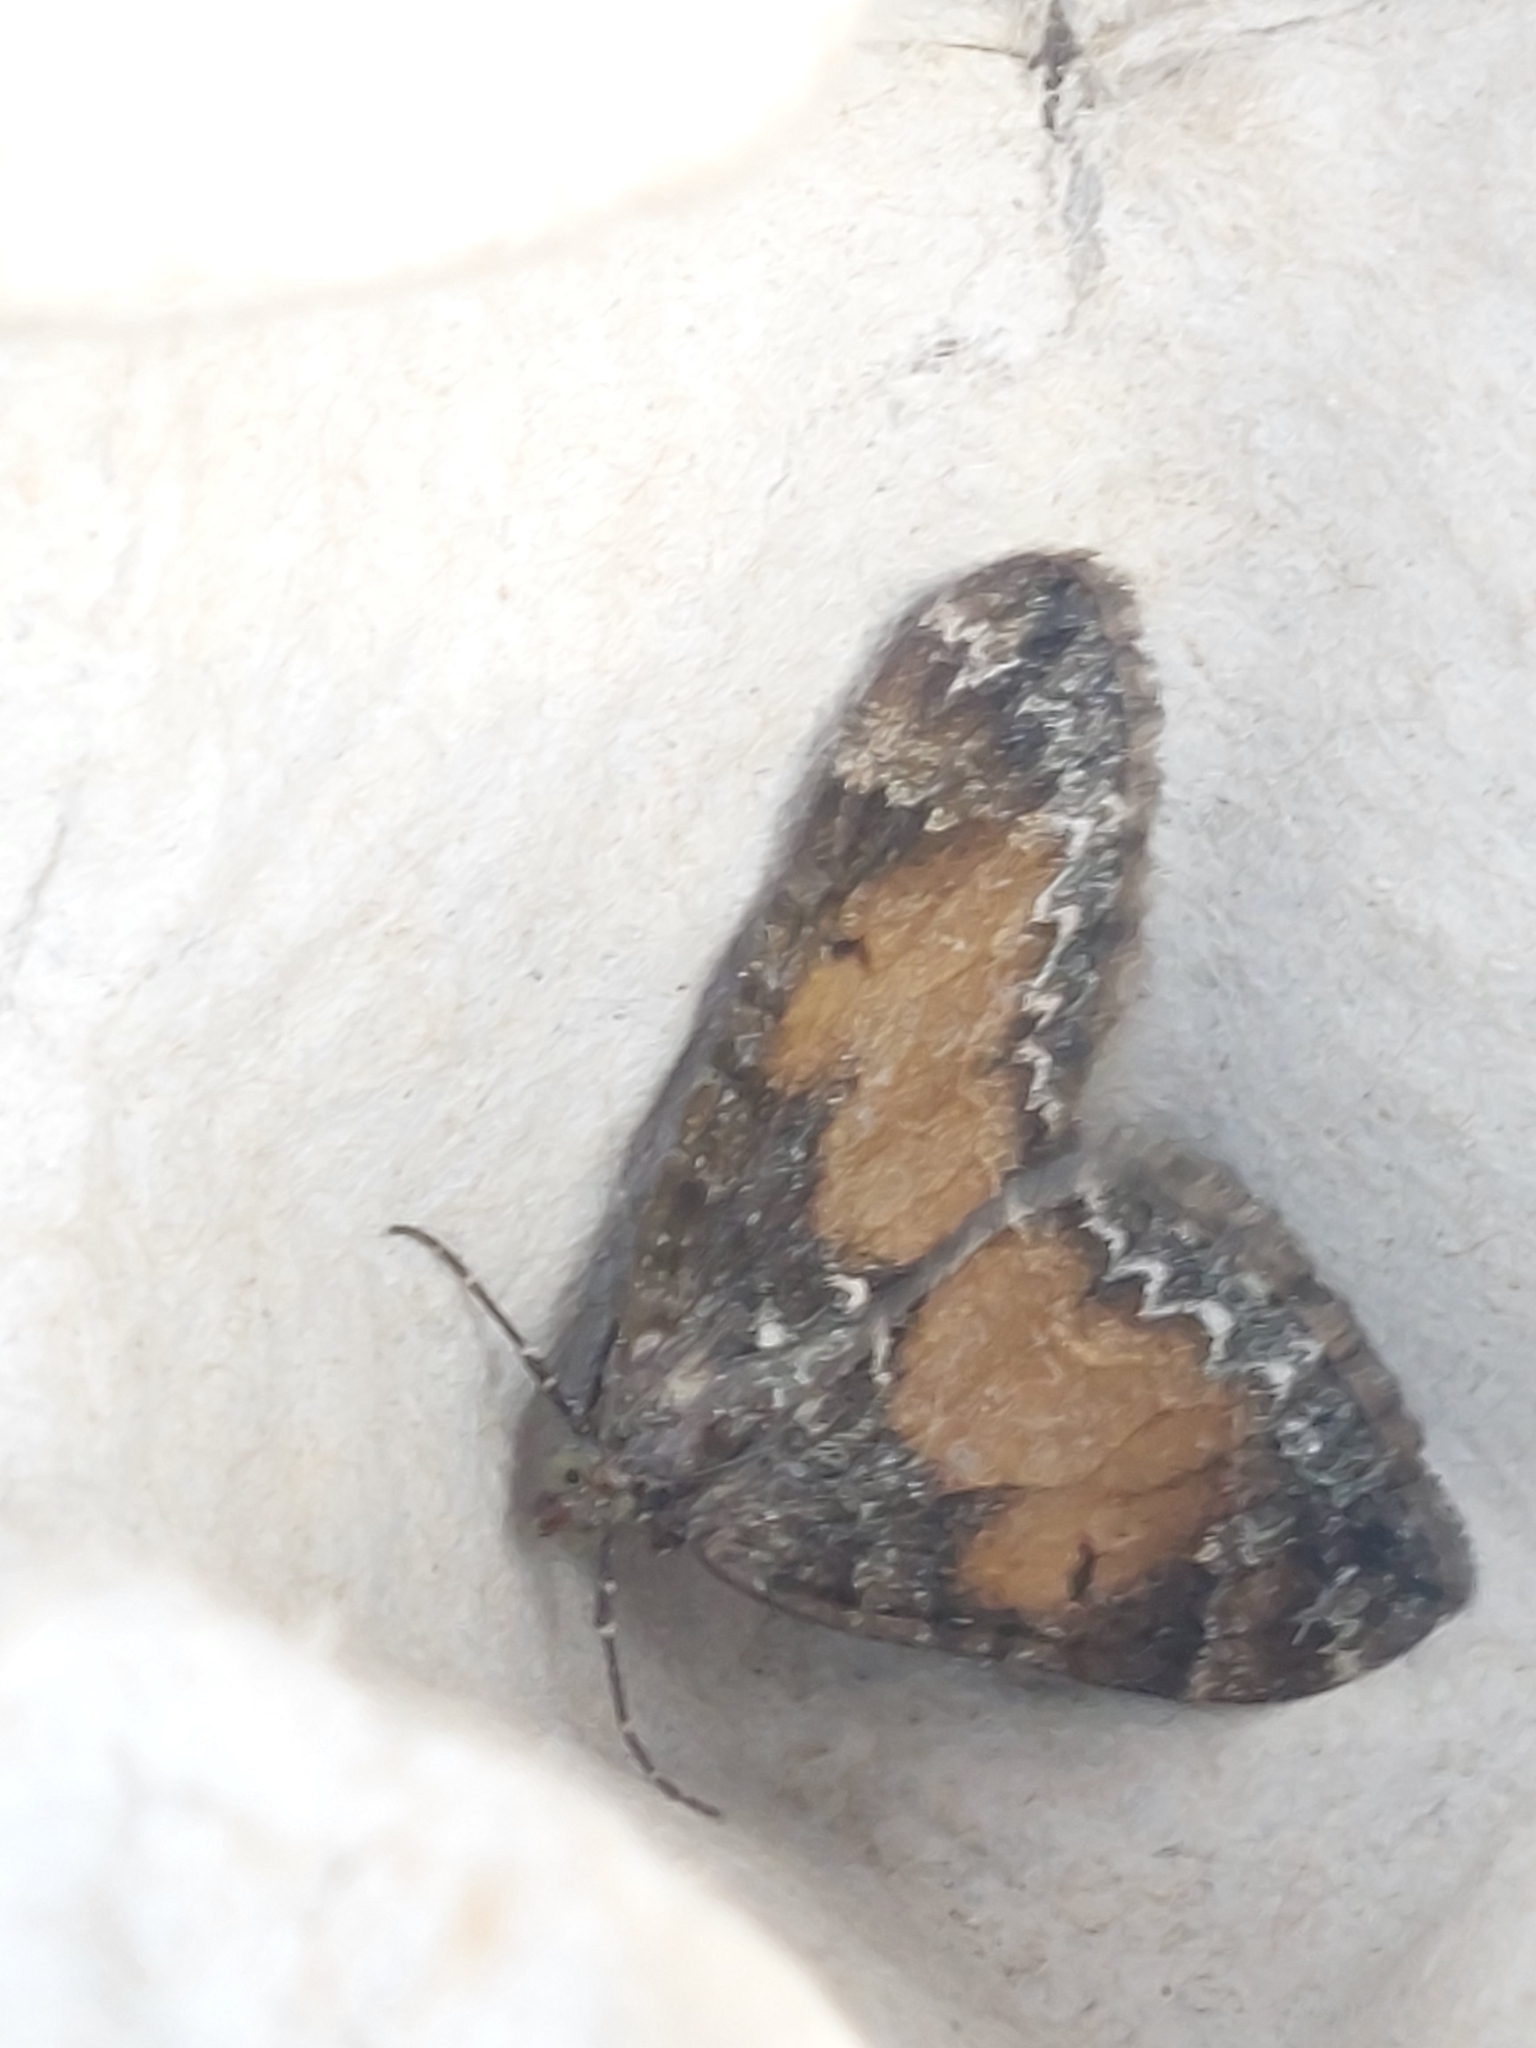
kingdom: Animalia
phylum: Arthropoda
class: Insecta
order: Lepidoptera
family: Geometridae
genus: Dysstroma
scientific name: Dysstroma truncata
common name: Common marbled carpet
